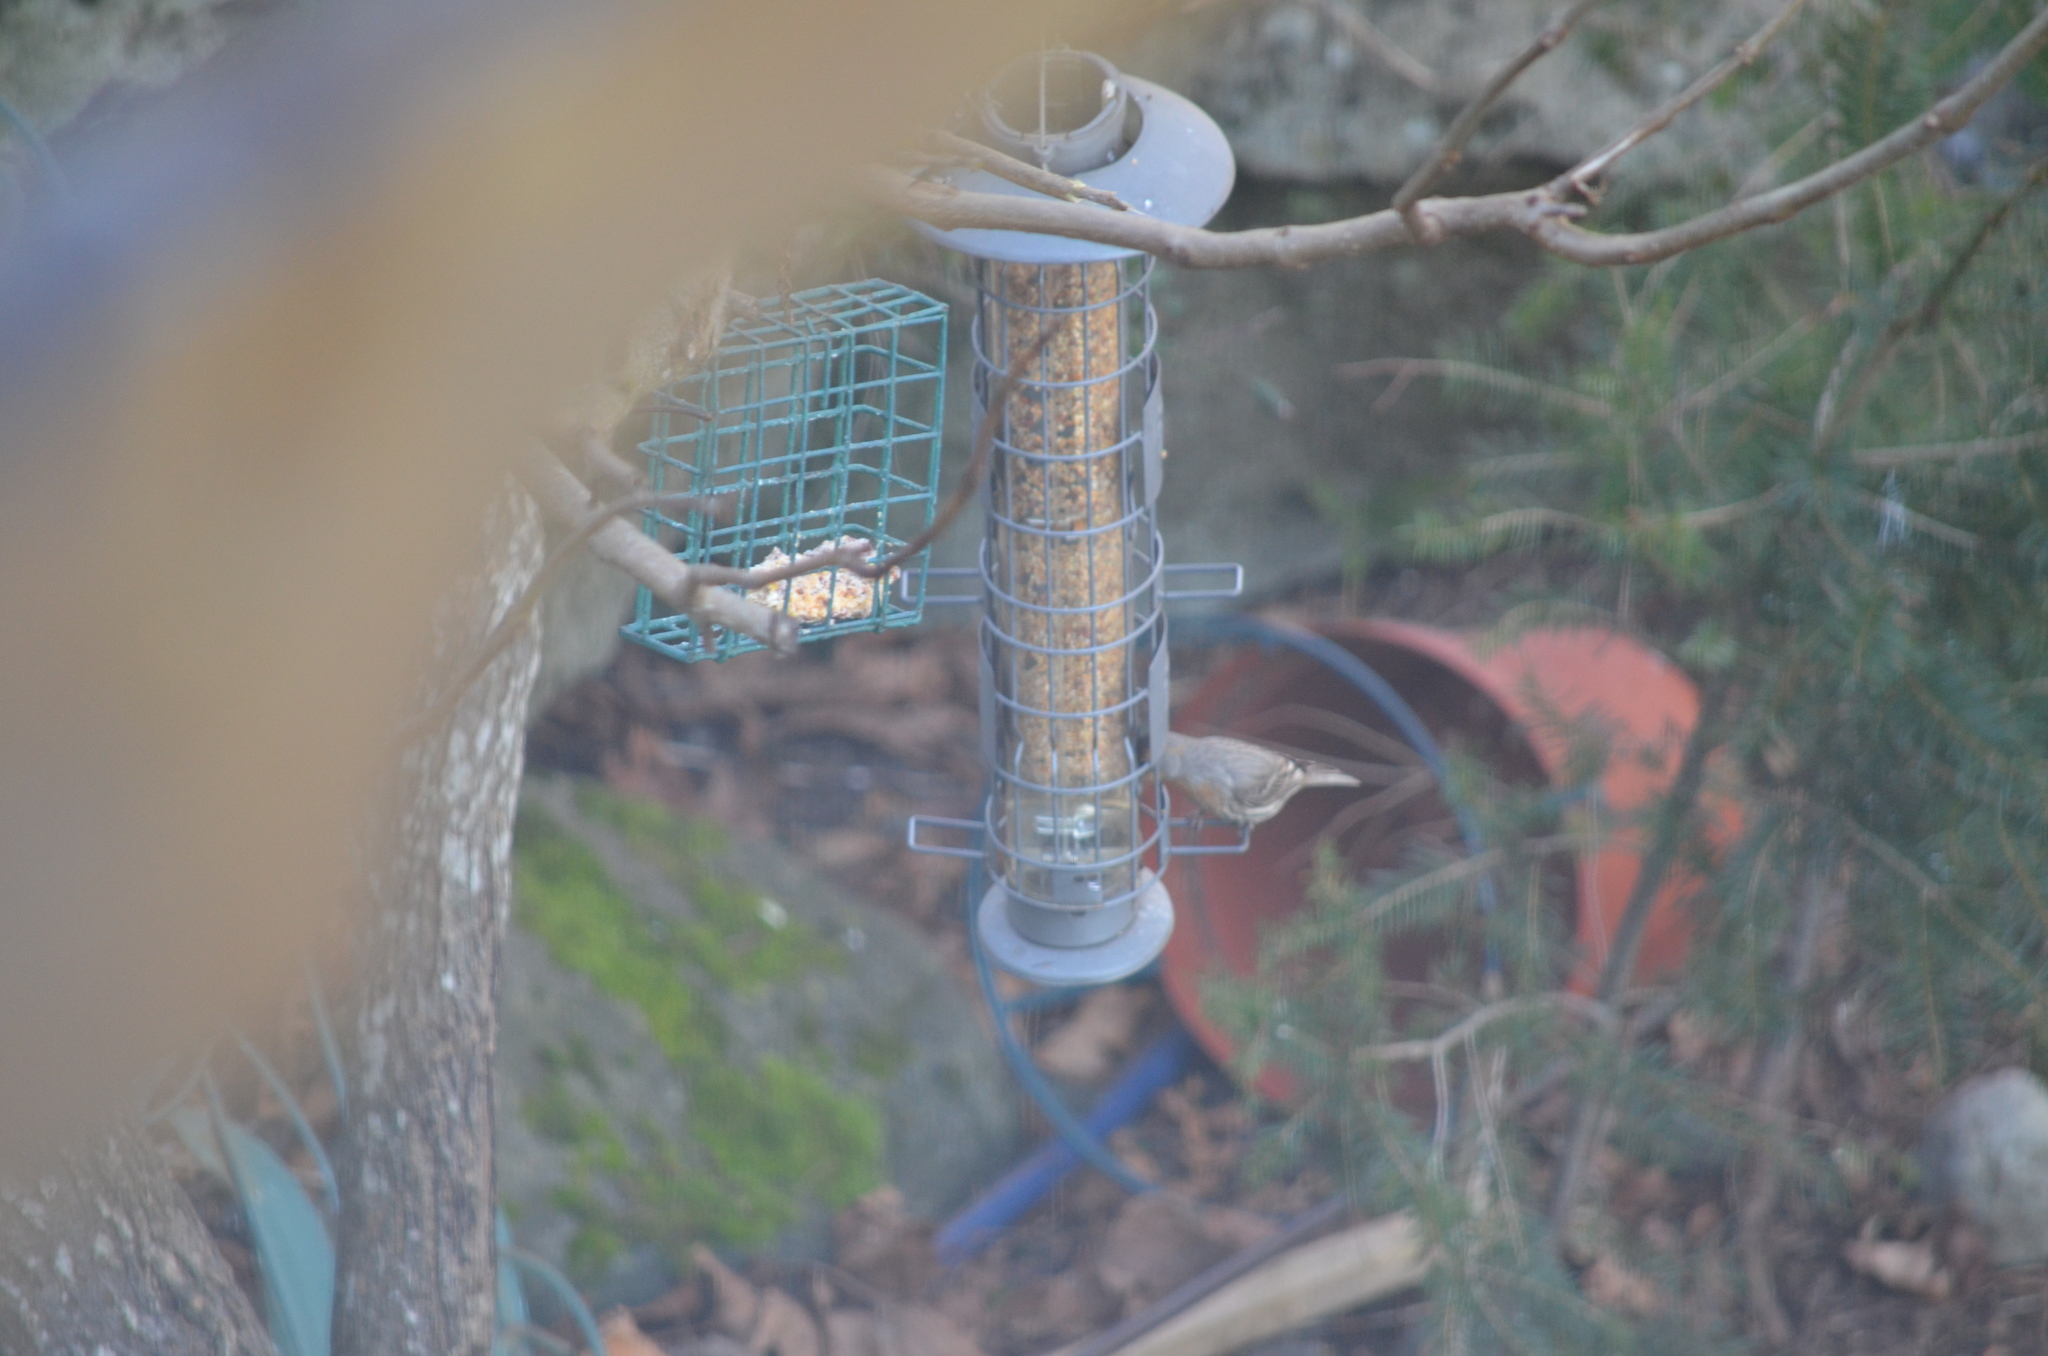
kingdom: Animalia
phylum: Chordata
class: Aves
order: Passeriformes
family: Fringillidae
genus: Haemorhous
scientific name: Haemorhous mexicanus
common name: House finch
